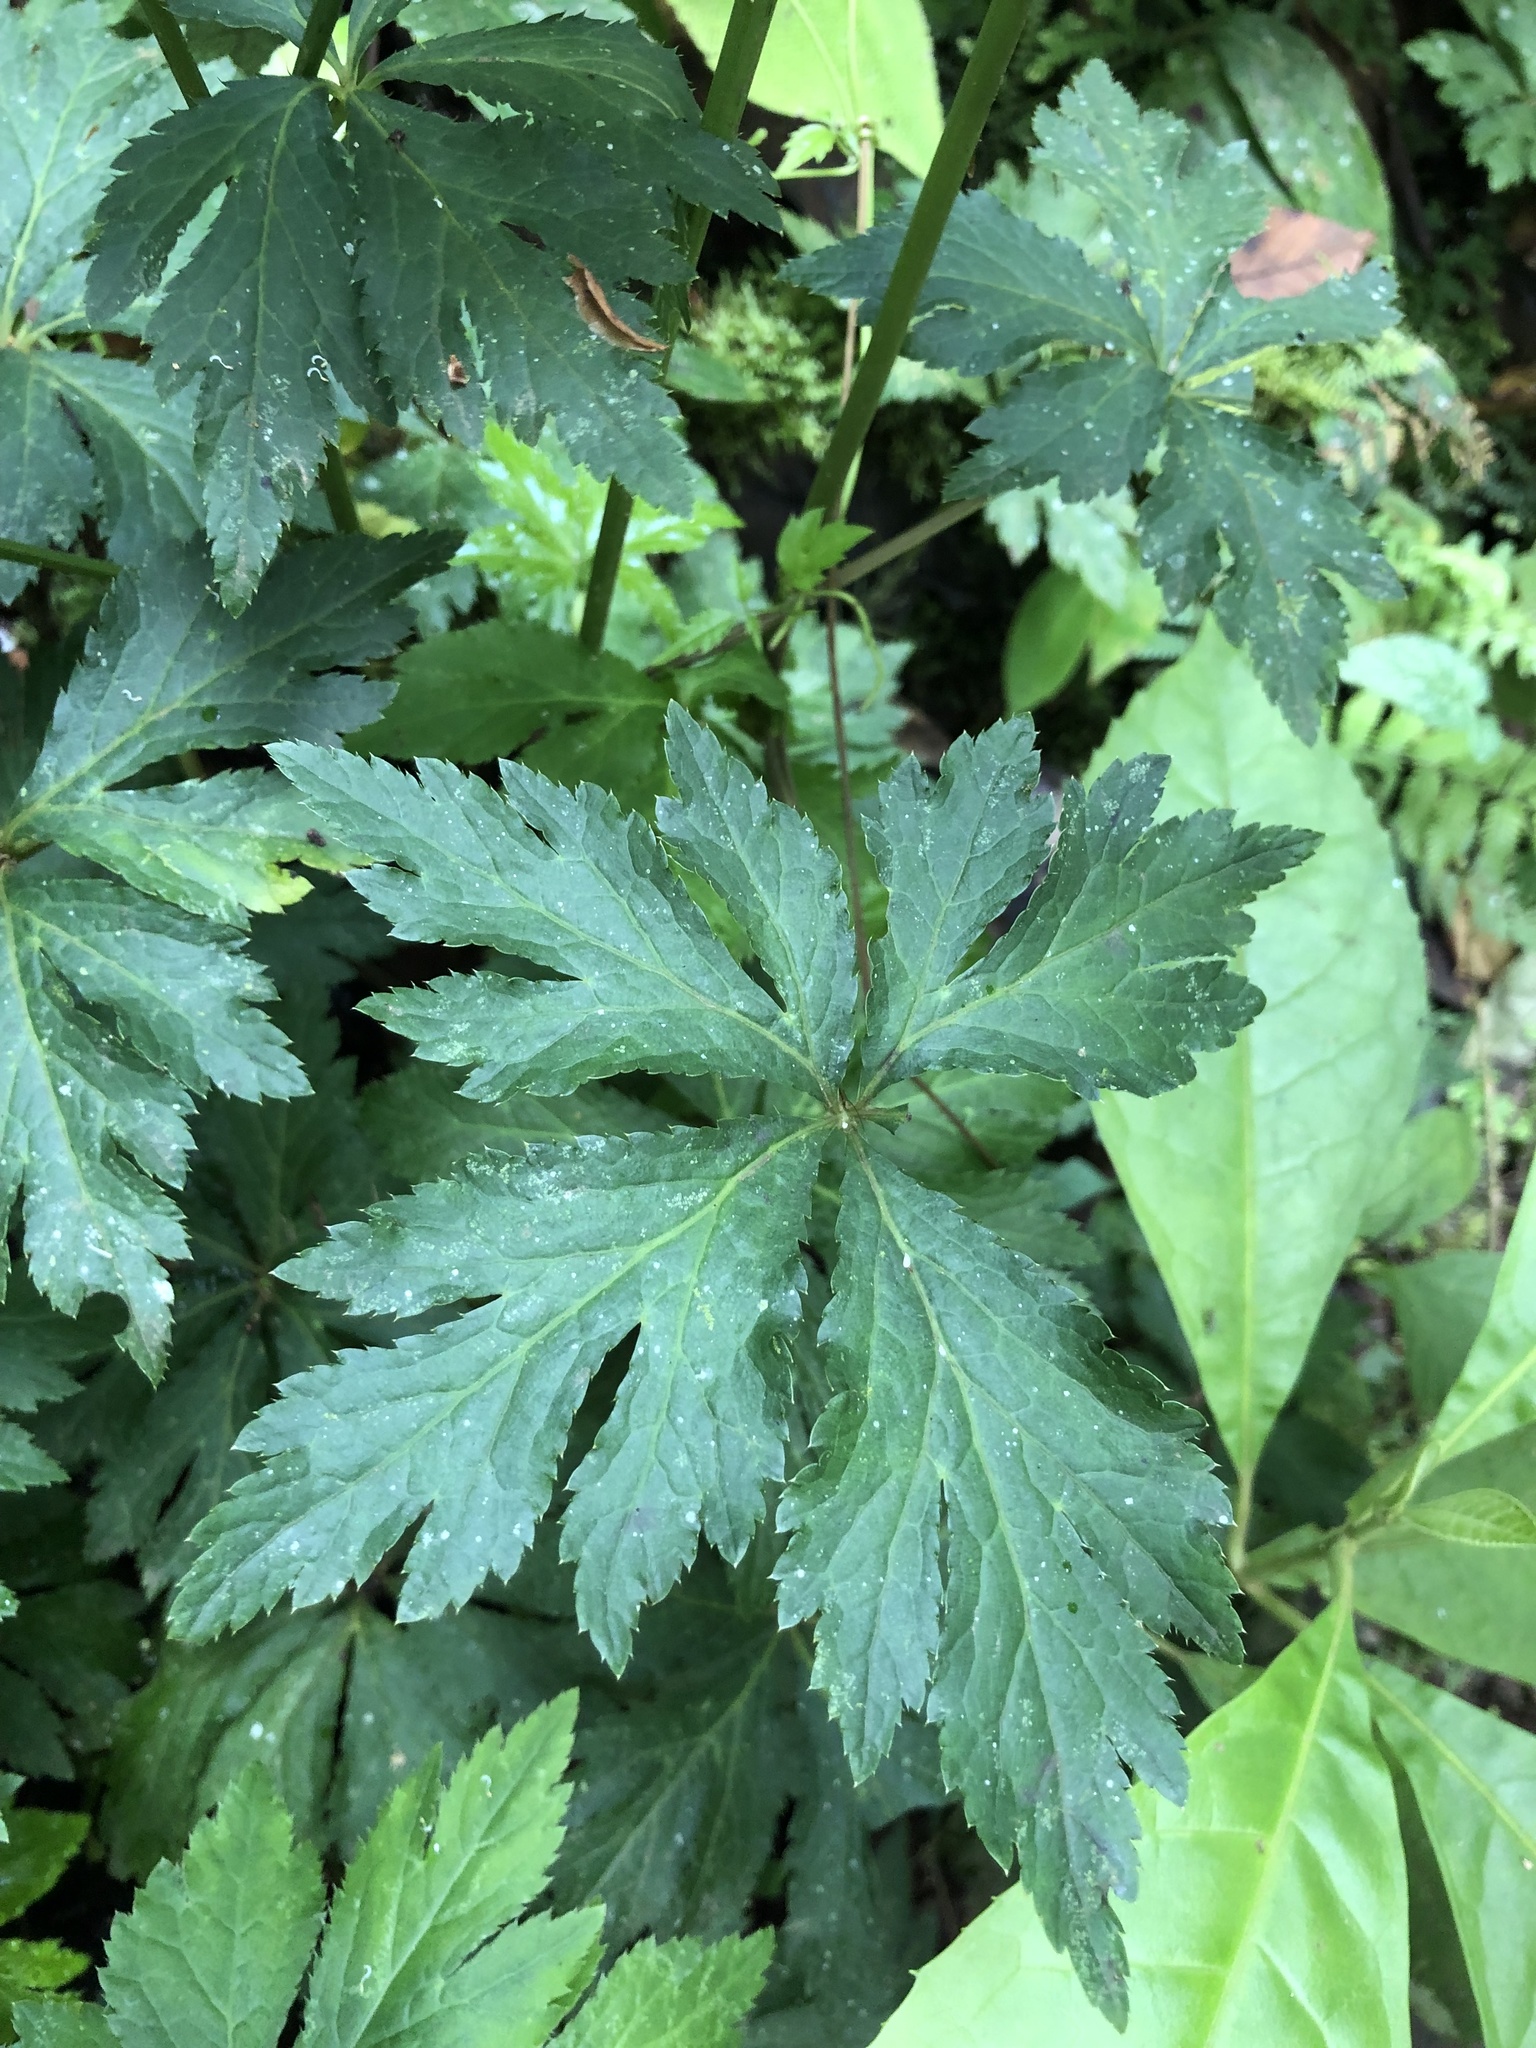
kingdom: Plantae
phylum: Tracheophyta
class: Magnoliopsida
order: Apiales
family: Apiaceae
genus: Sanicula
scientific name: Sanicula liberta
